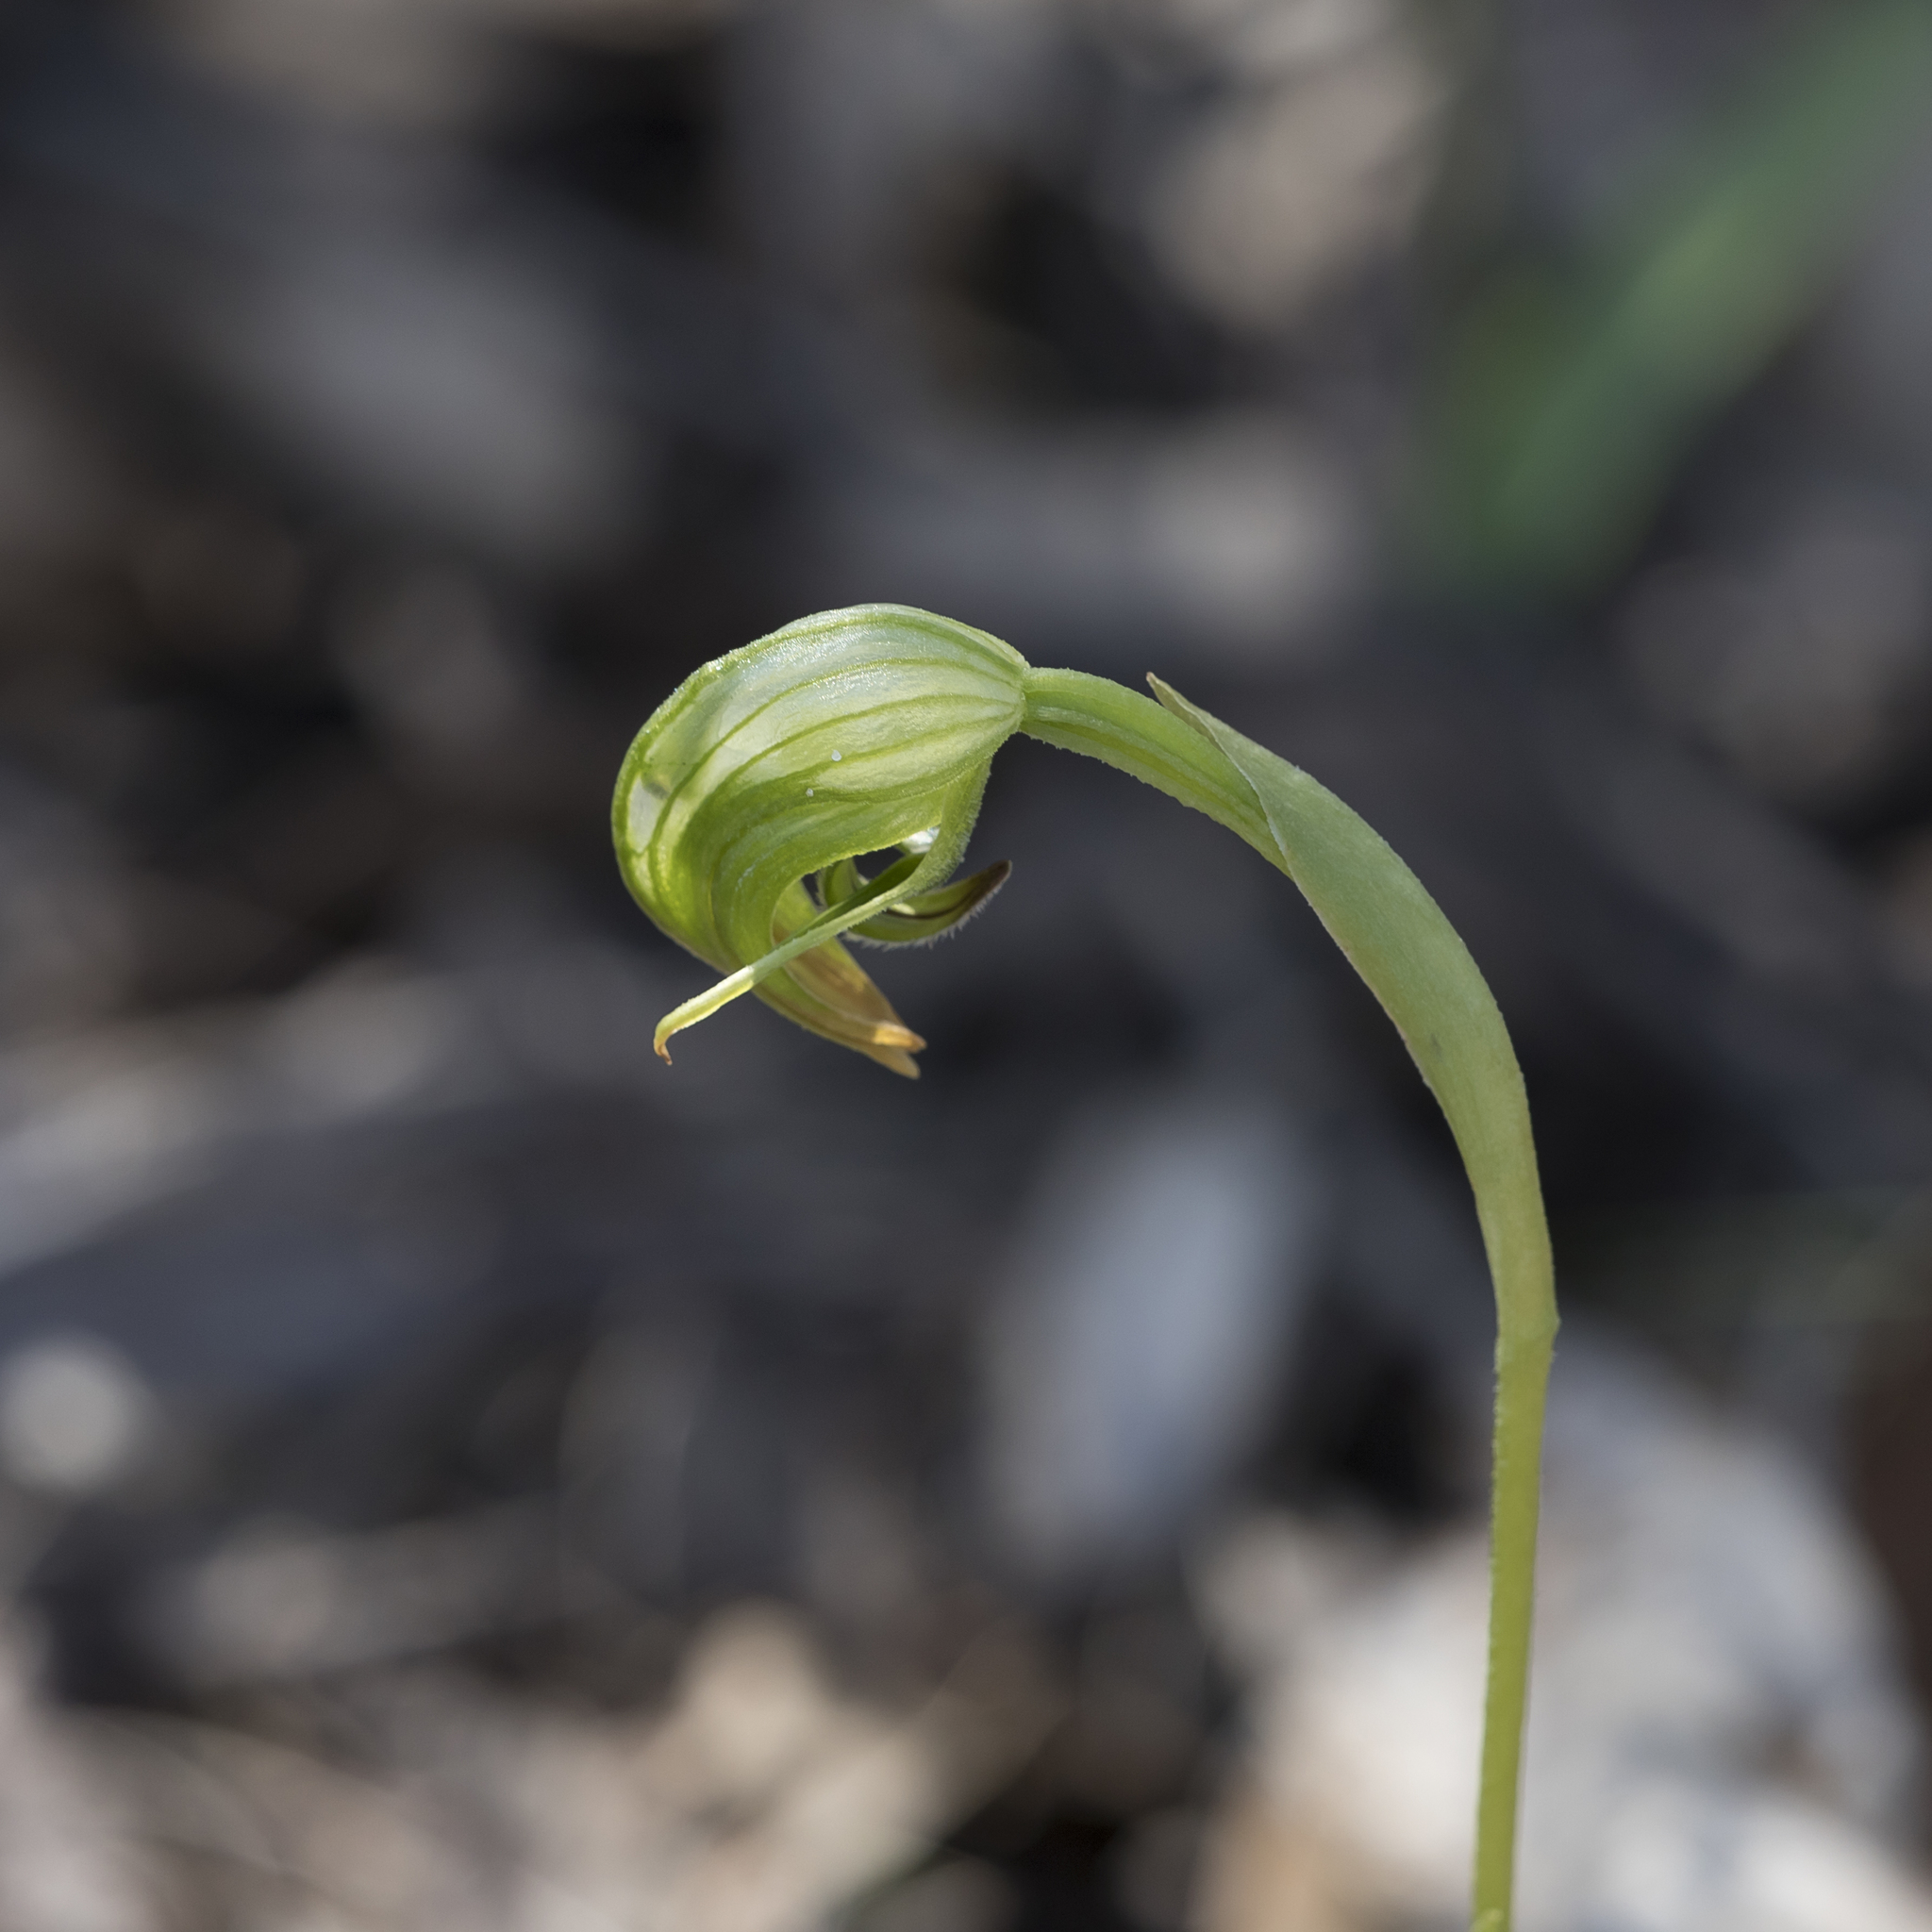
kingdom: Plantae
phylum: Tracheophyta
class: Liliopsida
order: Asparagales
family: Orchidaceae
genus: Pterostylis
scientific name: Pterostylis nutans
